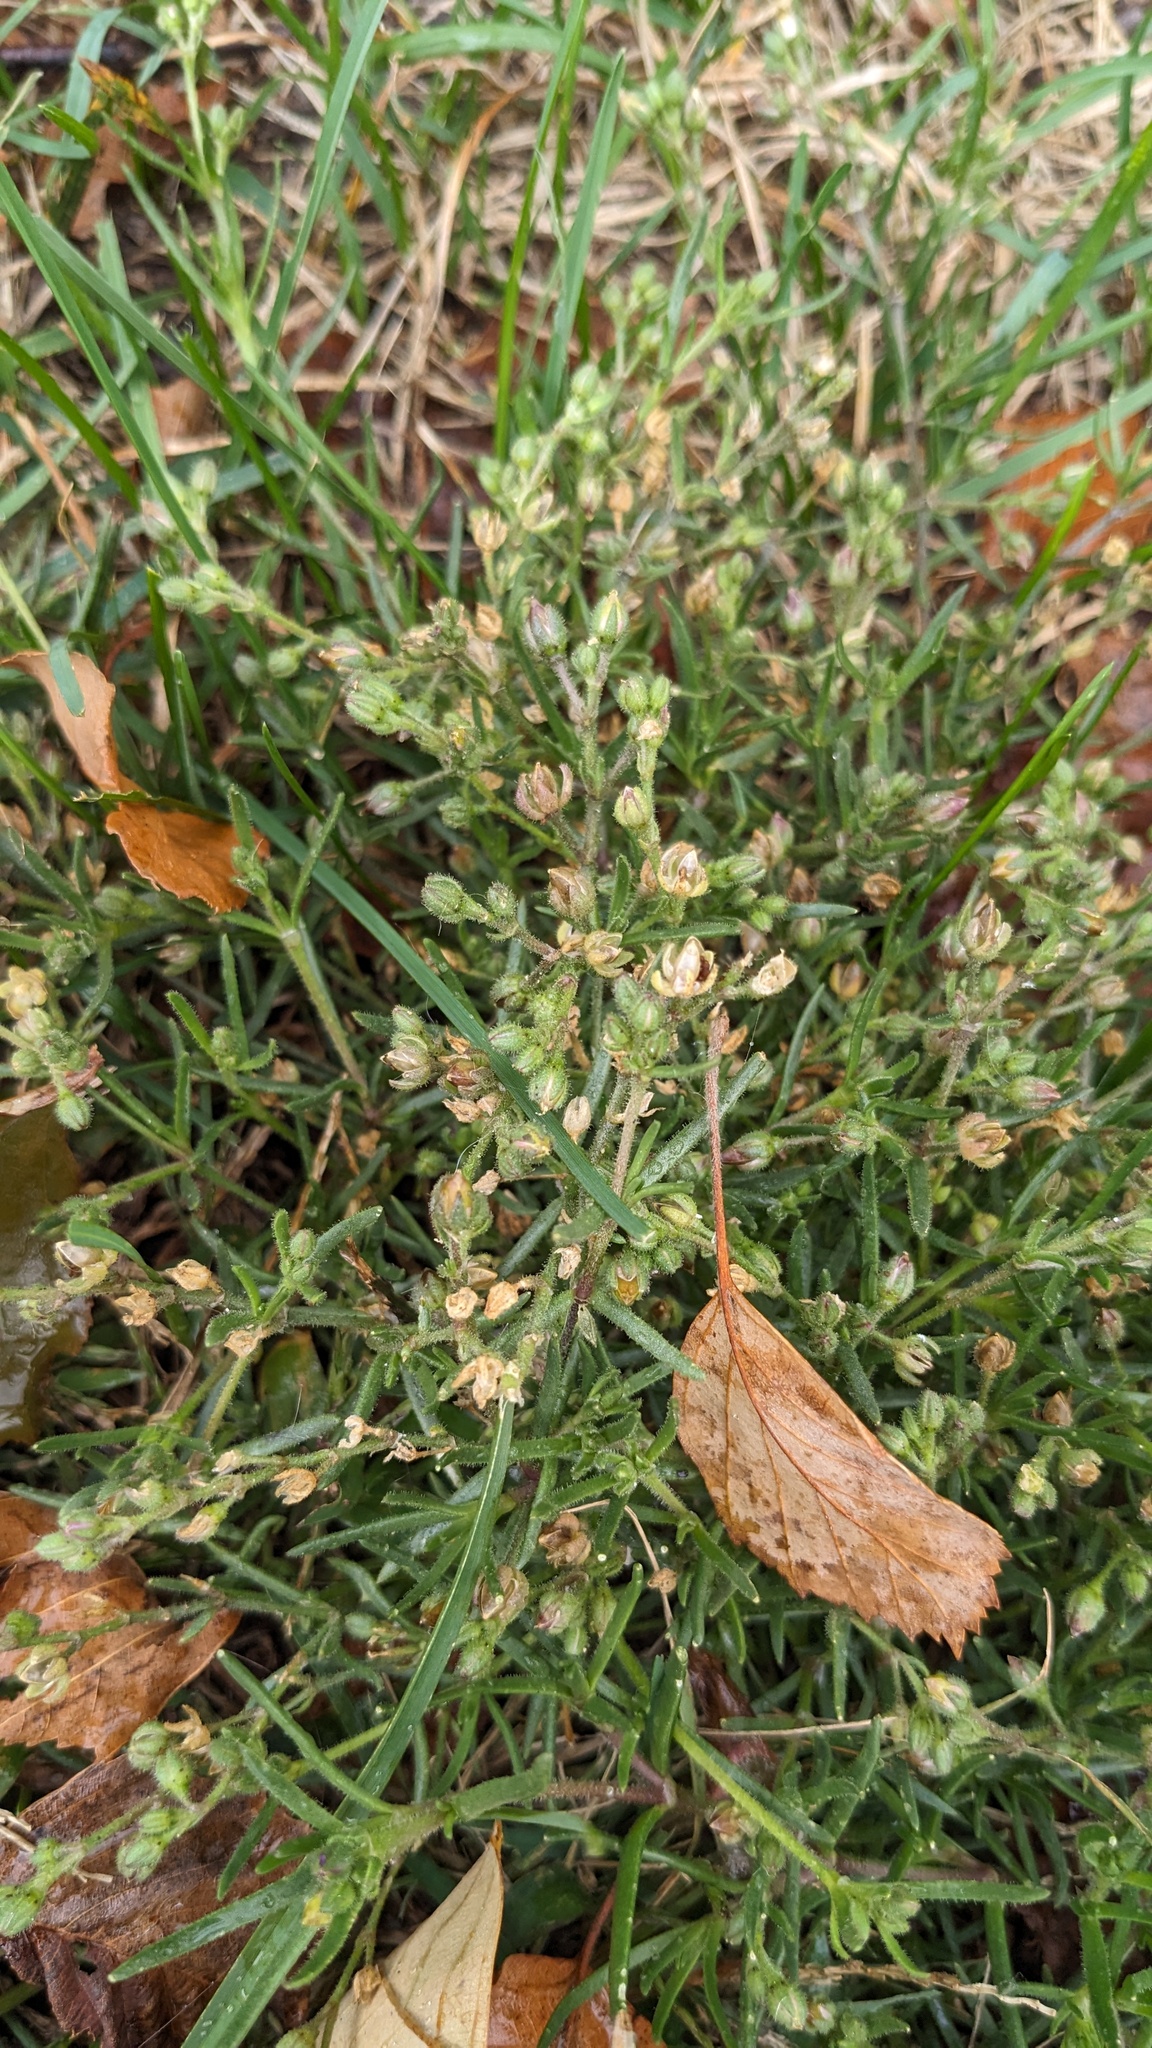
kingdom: Plantae
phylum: Tracheophyta
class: Magnoliopsida
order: Caryophyllales
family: Caryophyllaceae
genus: Spergularia
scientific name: Spergularia marina
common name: Lesser sea-spurrey
